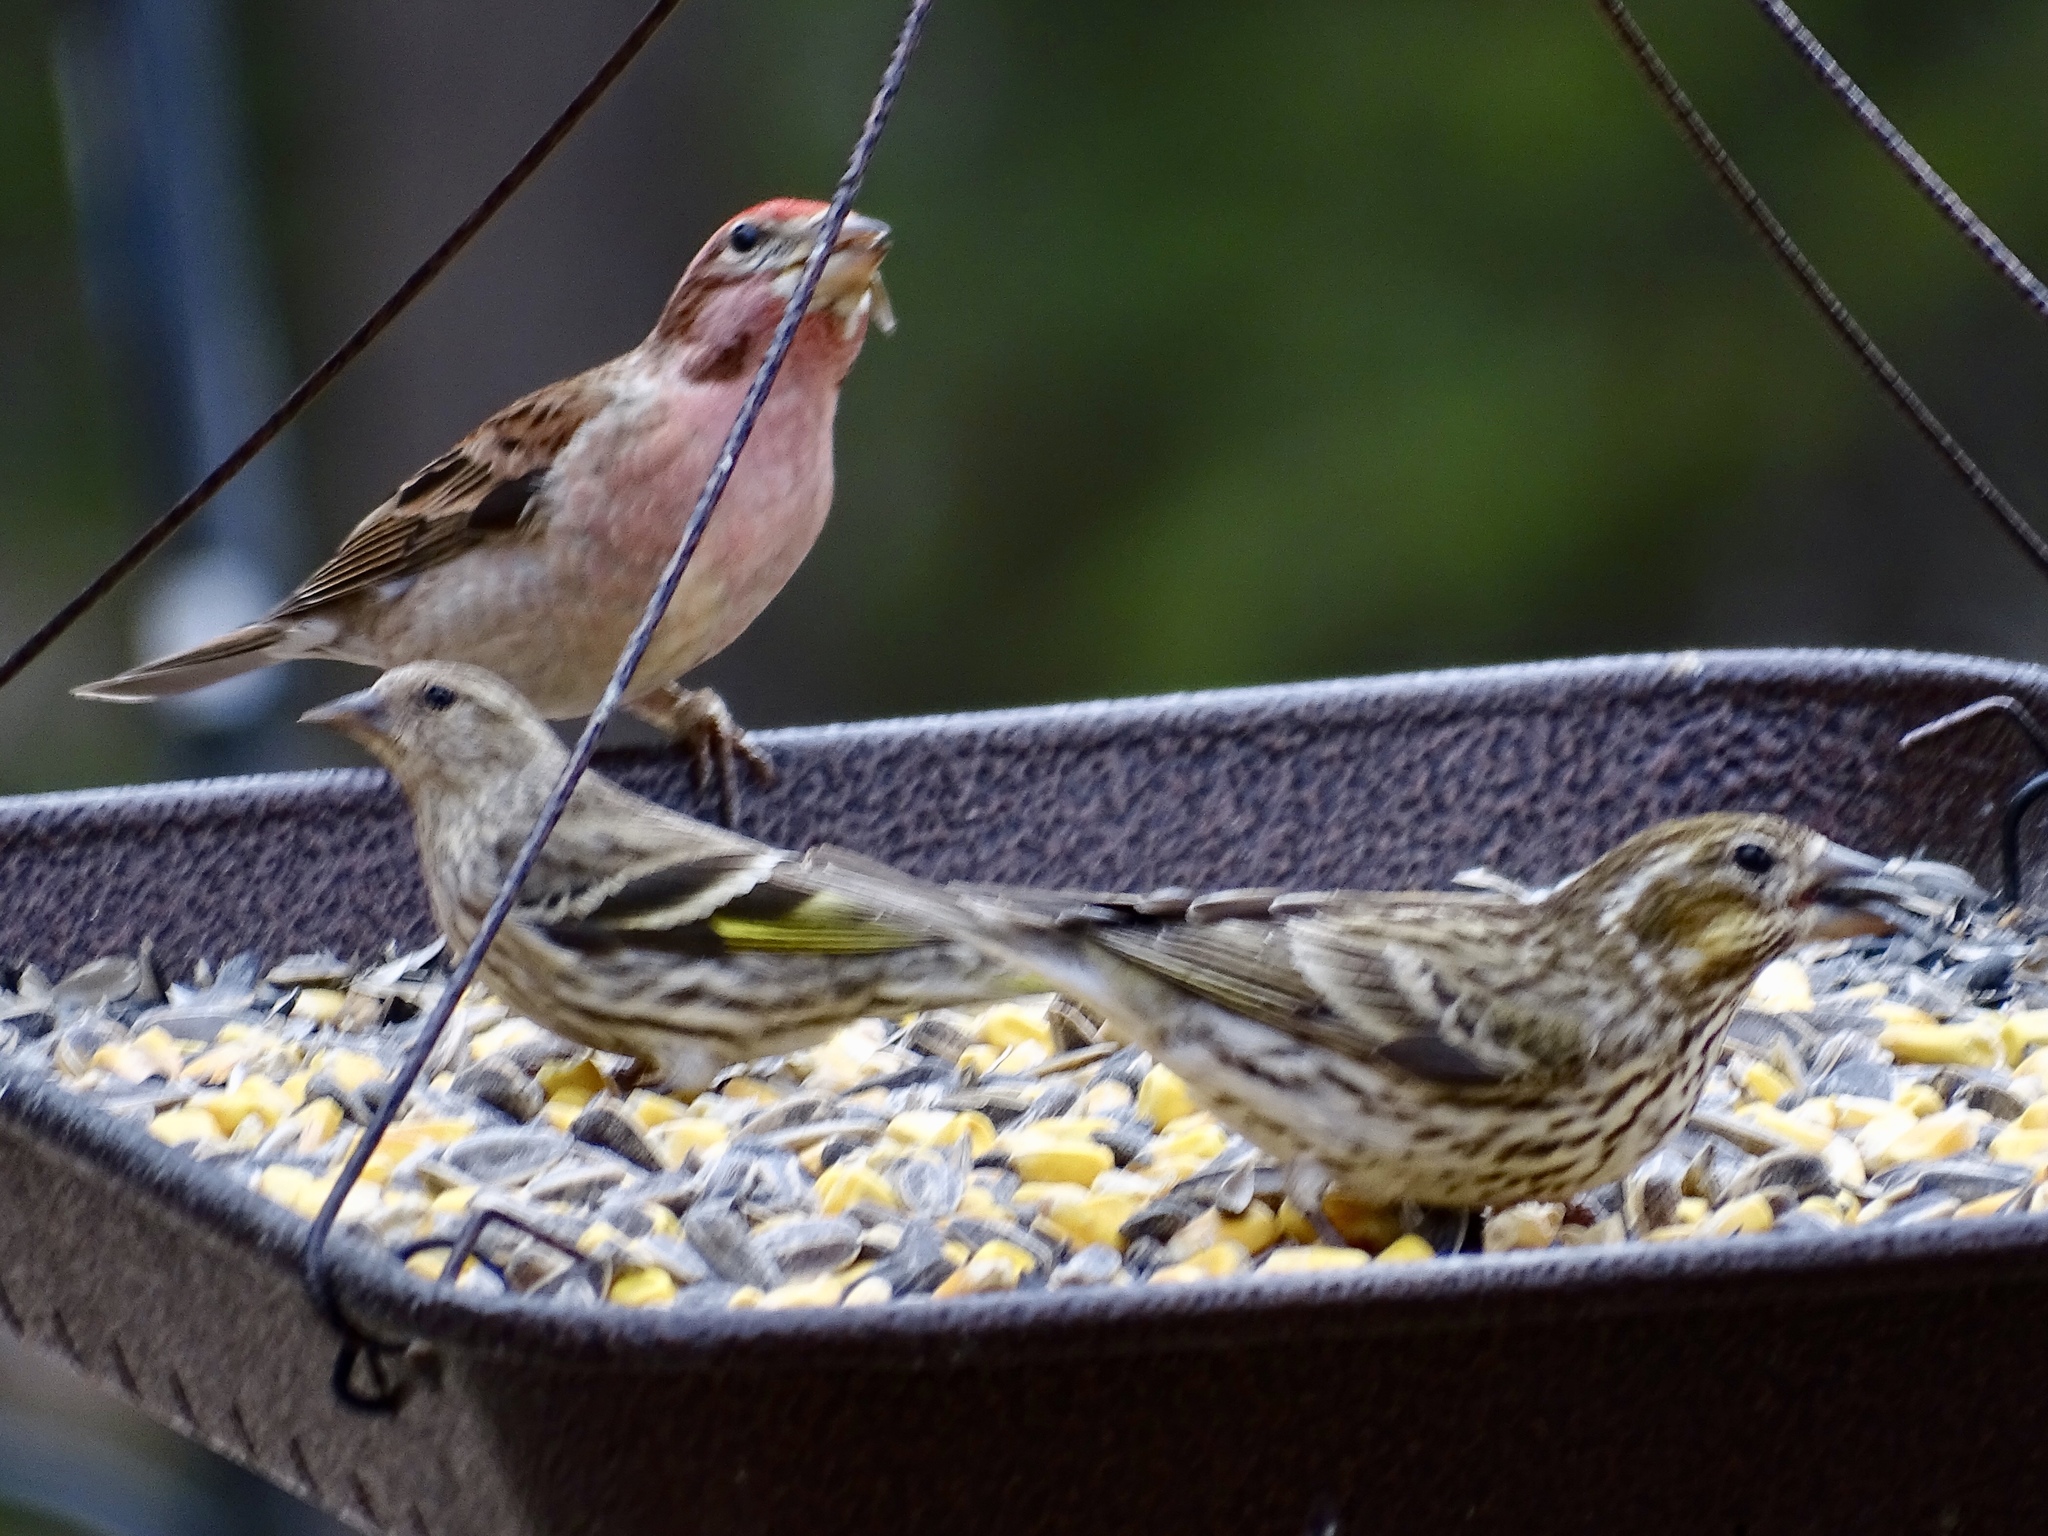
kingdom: Animalia
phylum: Chordata
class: Aves
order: Passeriformes
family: Fringillidae
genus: Haemorhous
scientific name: Haemorhous cassinii
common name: Cassin's finch
